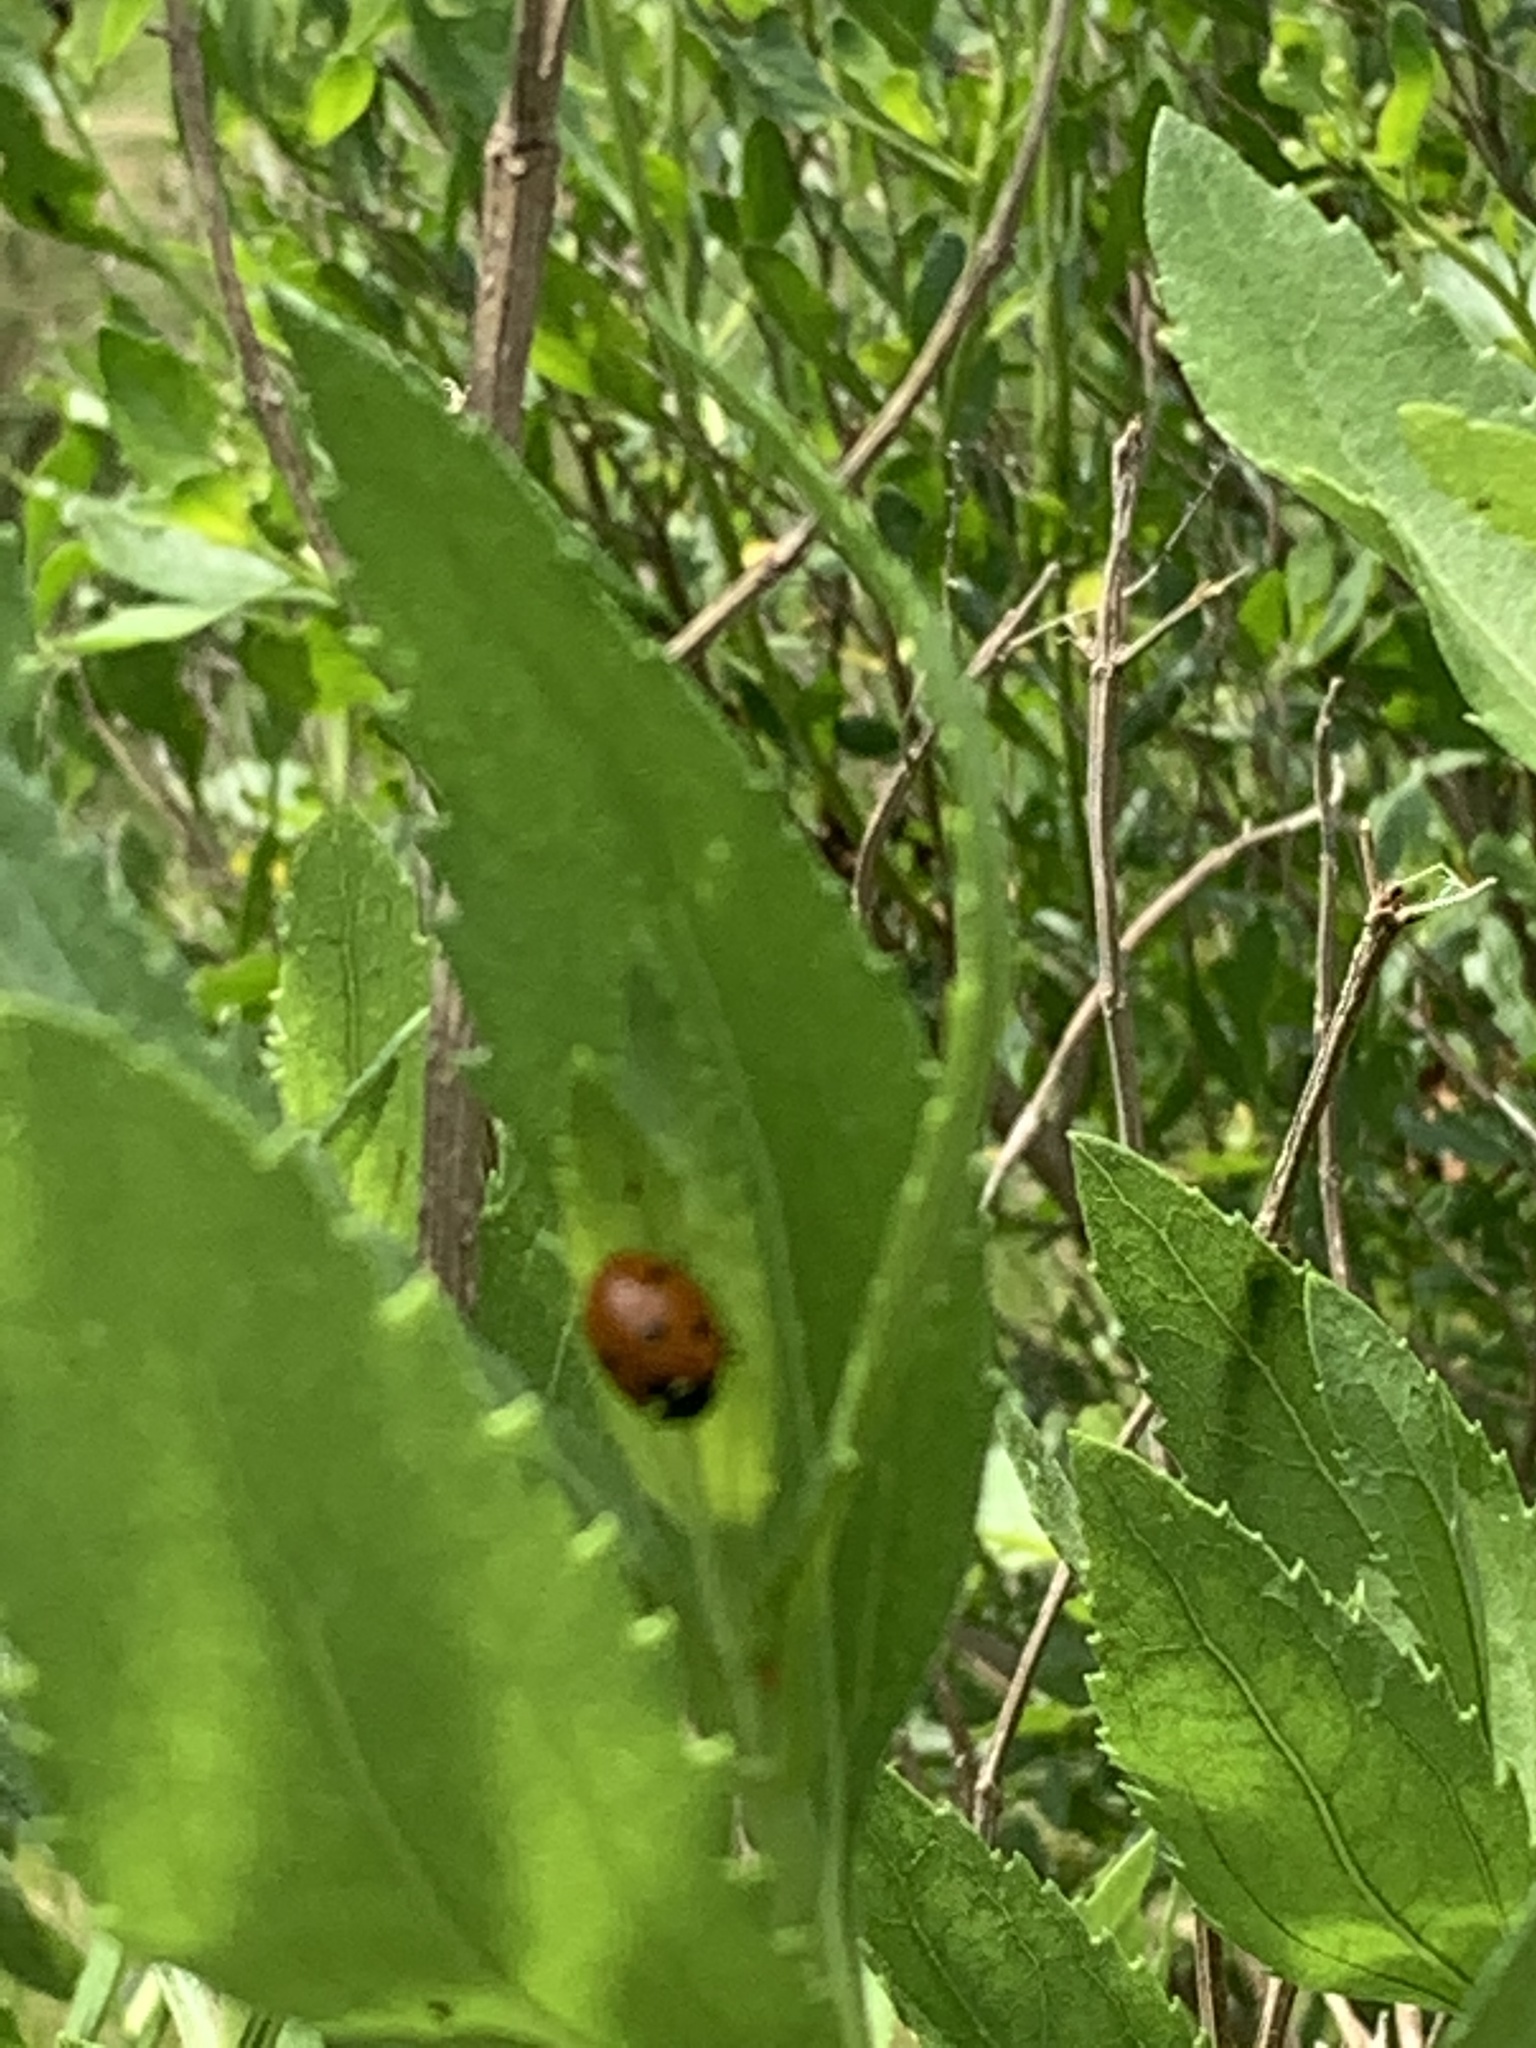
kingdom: Animalia
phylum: Arthropoda
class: Insecta
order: Coleoptera
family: Coccinellidae
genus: Coccinella
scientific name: Coccinella septempunctata
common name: Sevenspotted lady beetle
